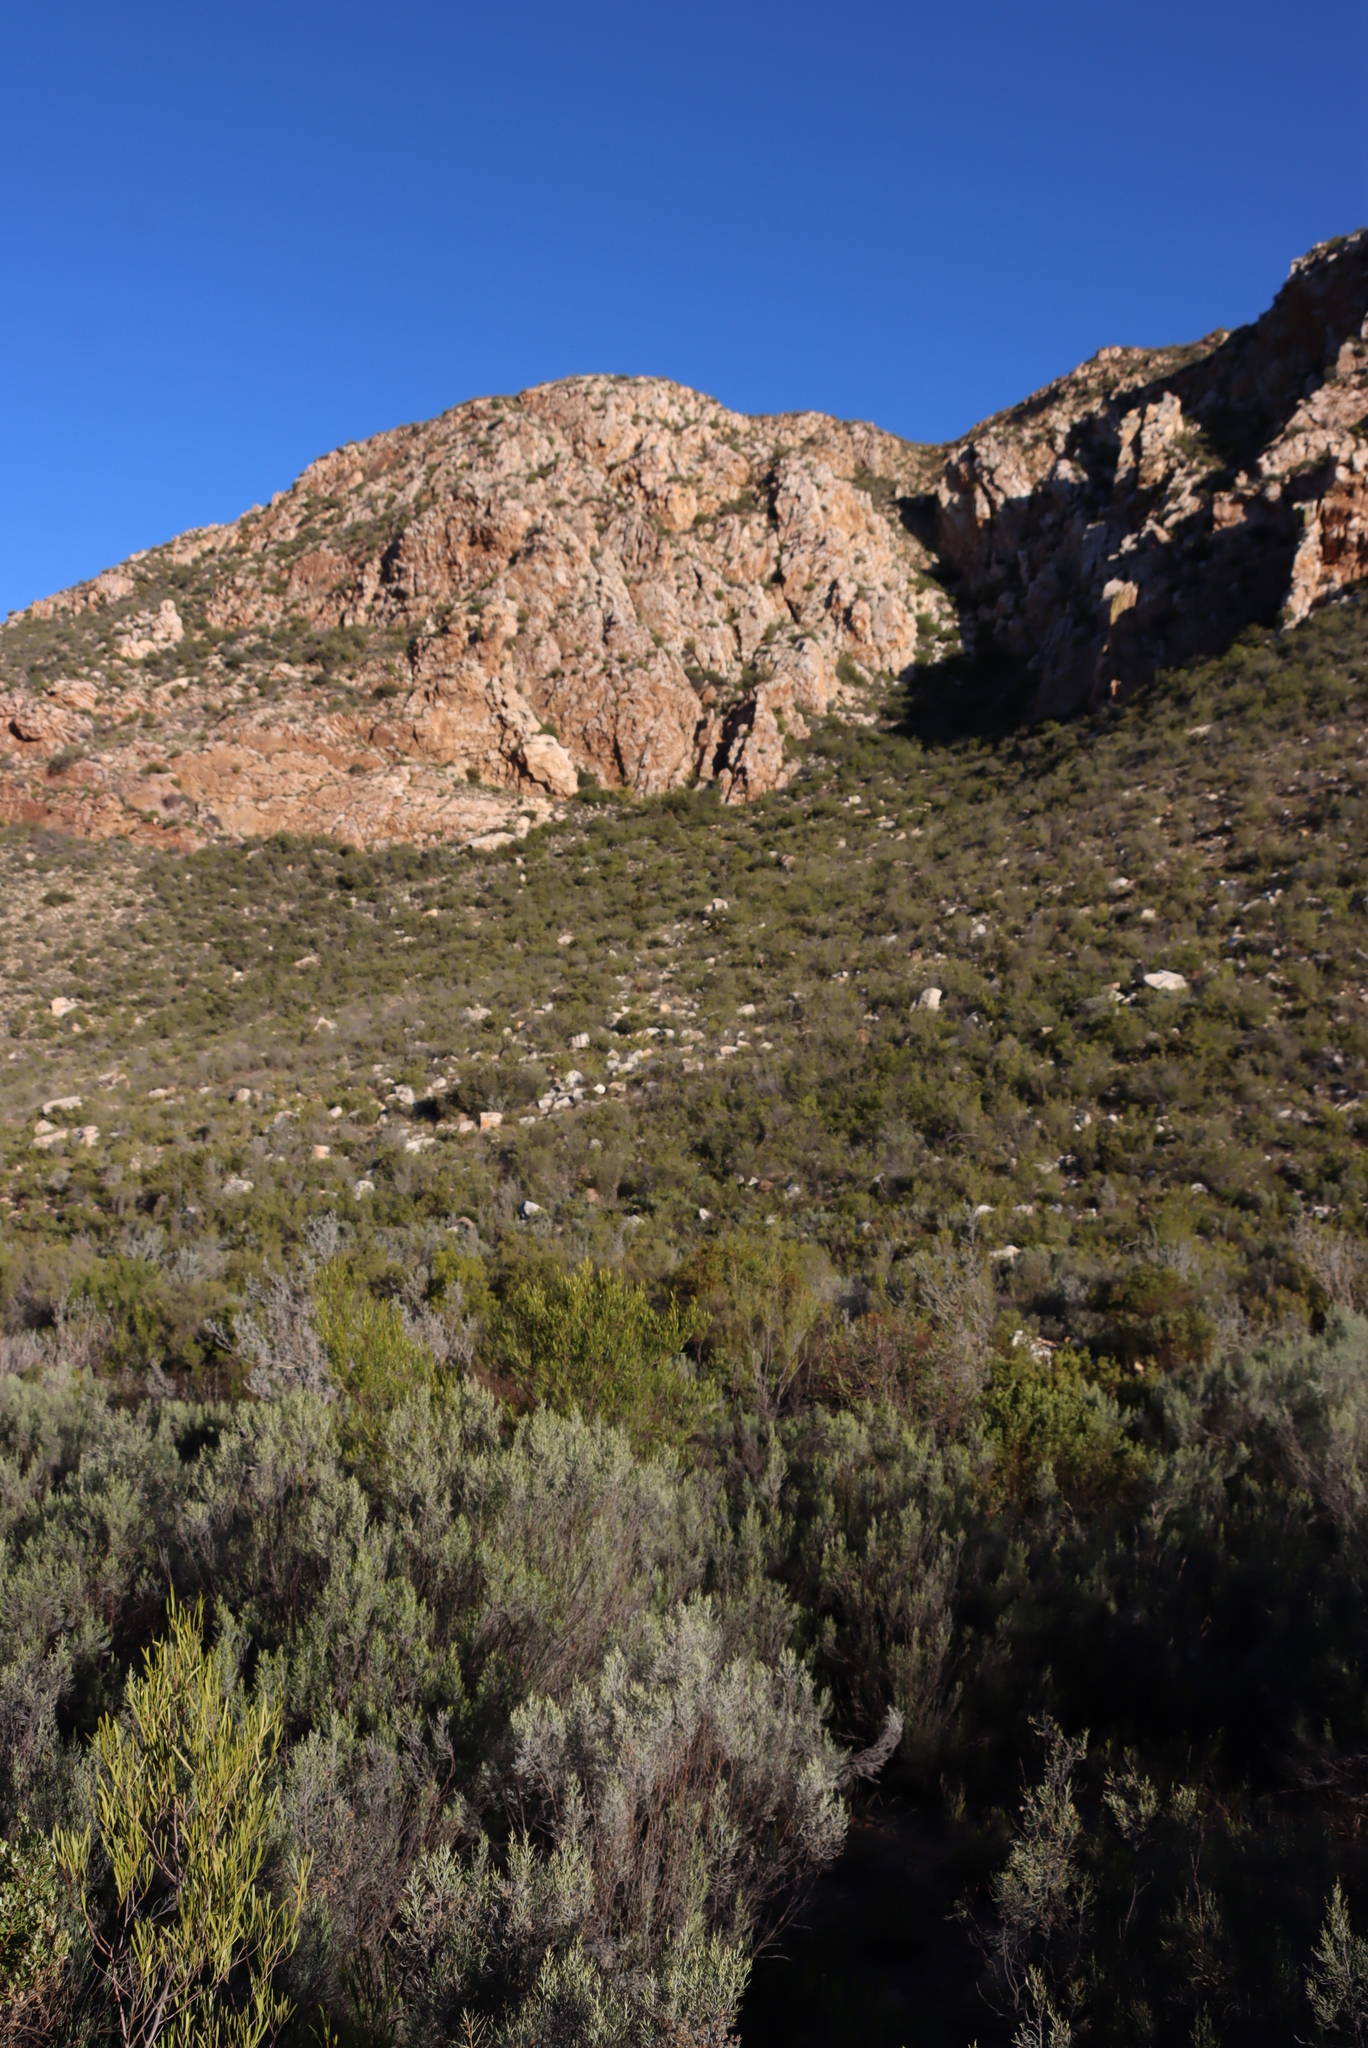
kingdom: Plantae
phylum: Tracheophyta
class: Magnoliopsida
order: Sapindales
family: Sapindaceae
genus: Dodonaea
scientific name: Dodonaea viscosa
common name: Hopbush
